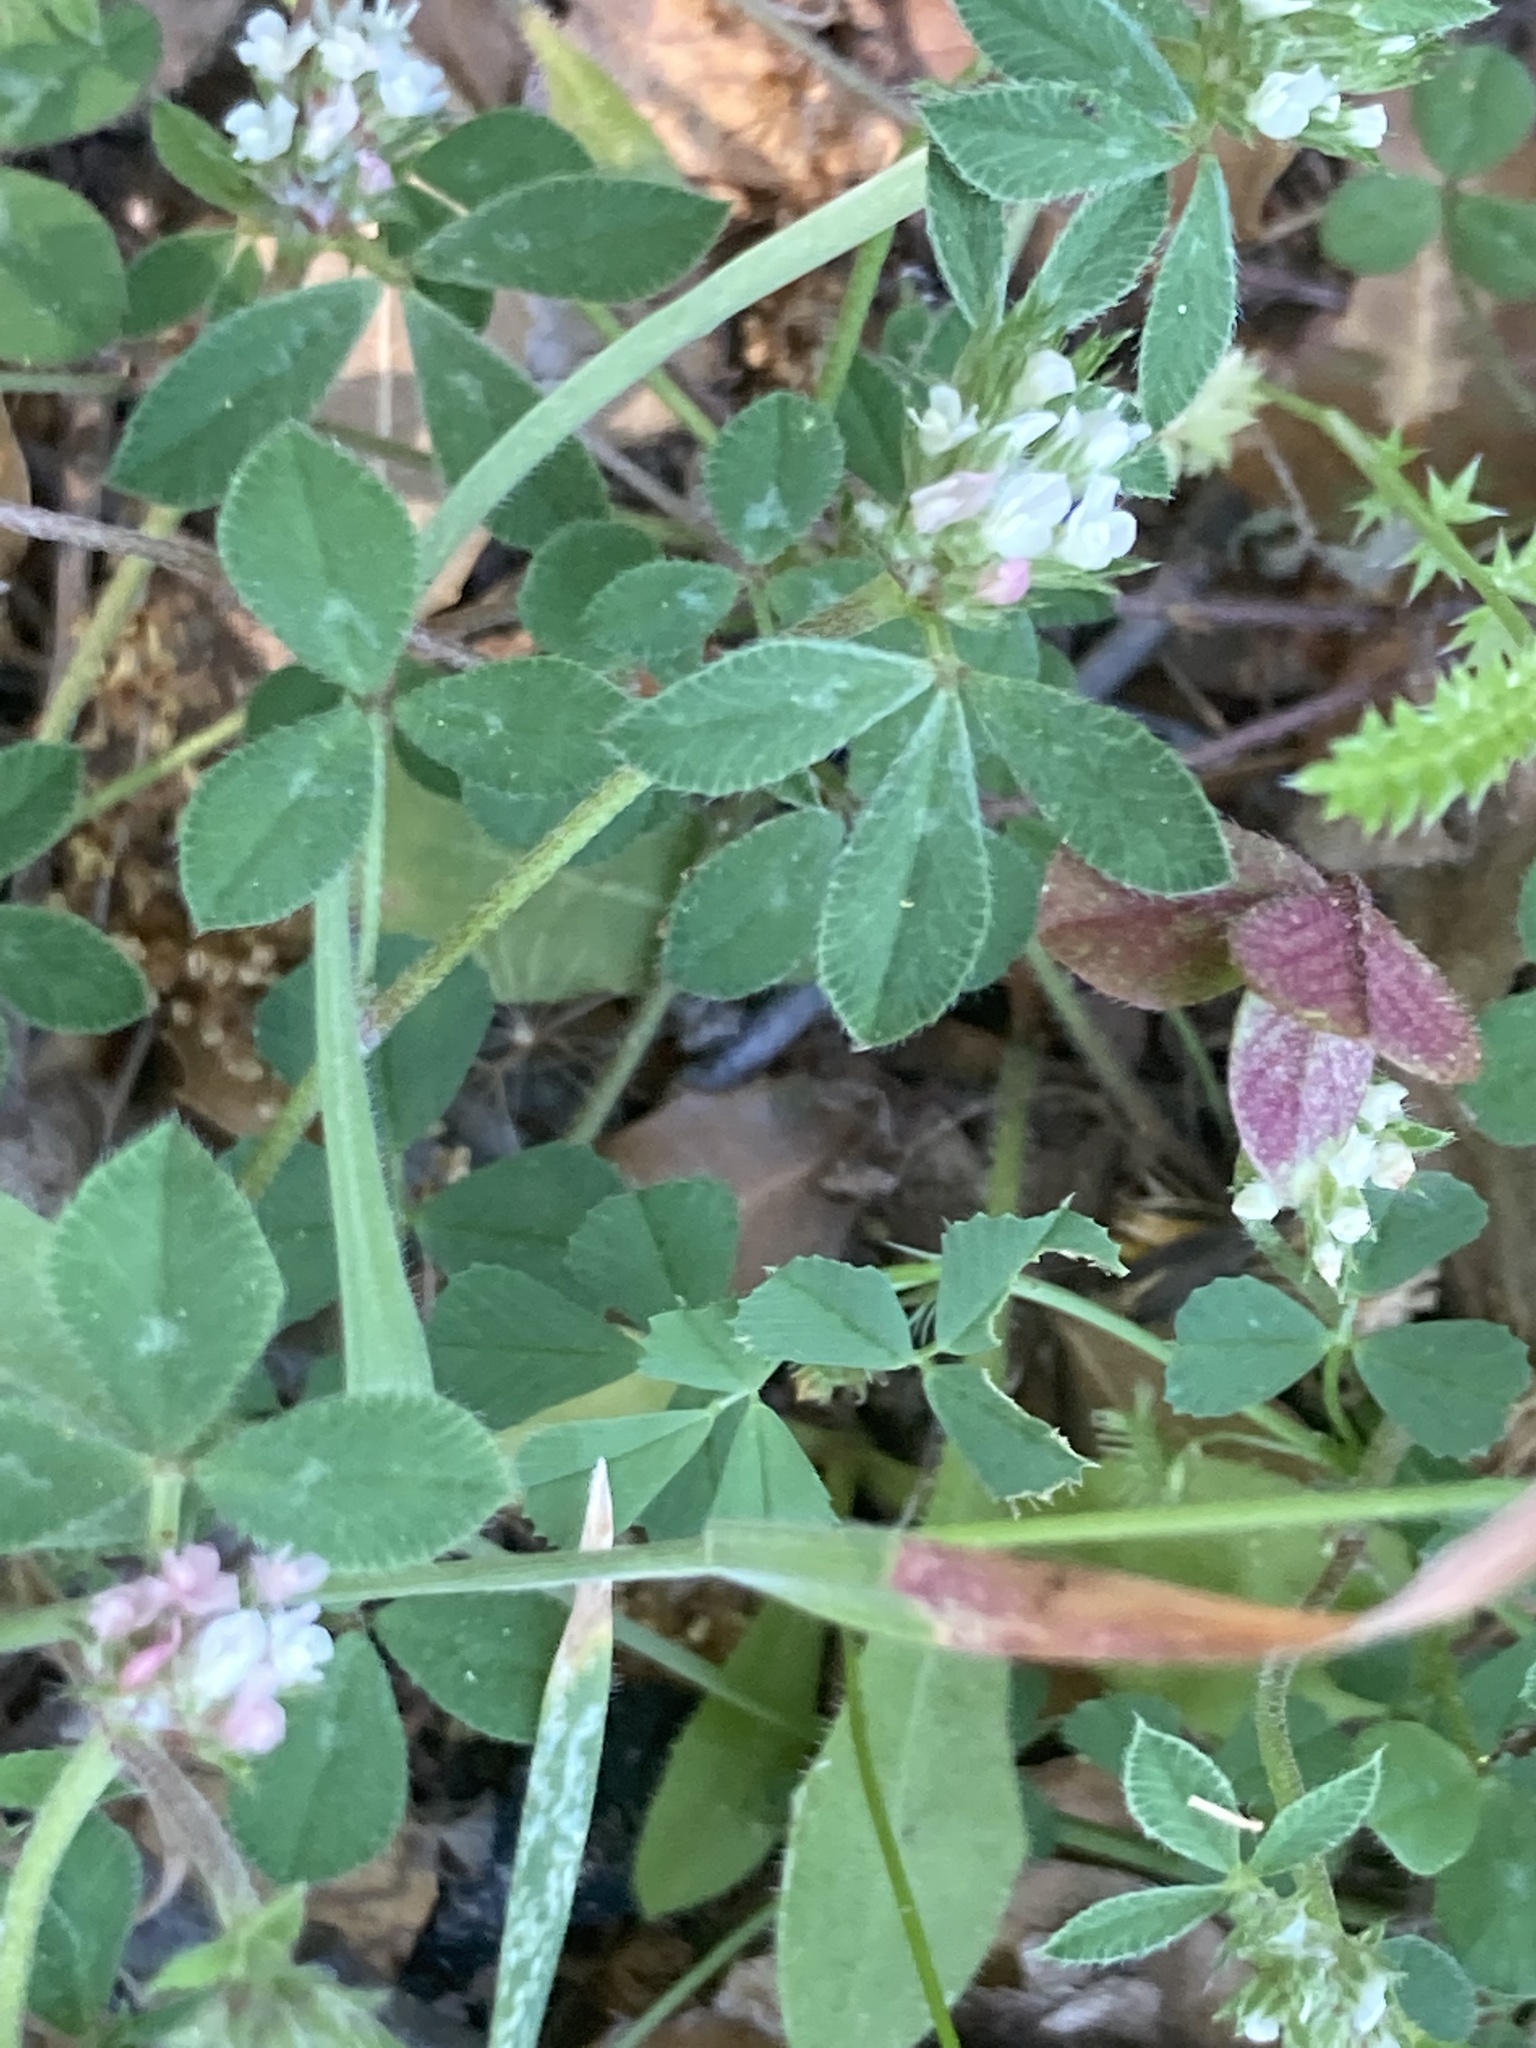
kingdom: Plantae
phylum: Tracheophyta
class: Magnoliopsida
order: Fabales
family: Fabaceae
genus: Trifolium
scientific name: Trifolium scabrum
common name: Rough clover
